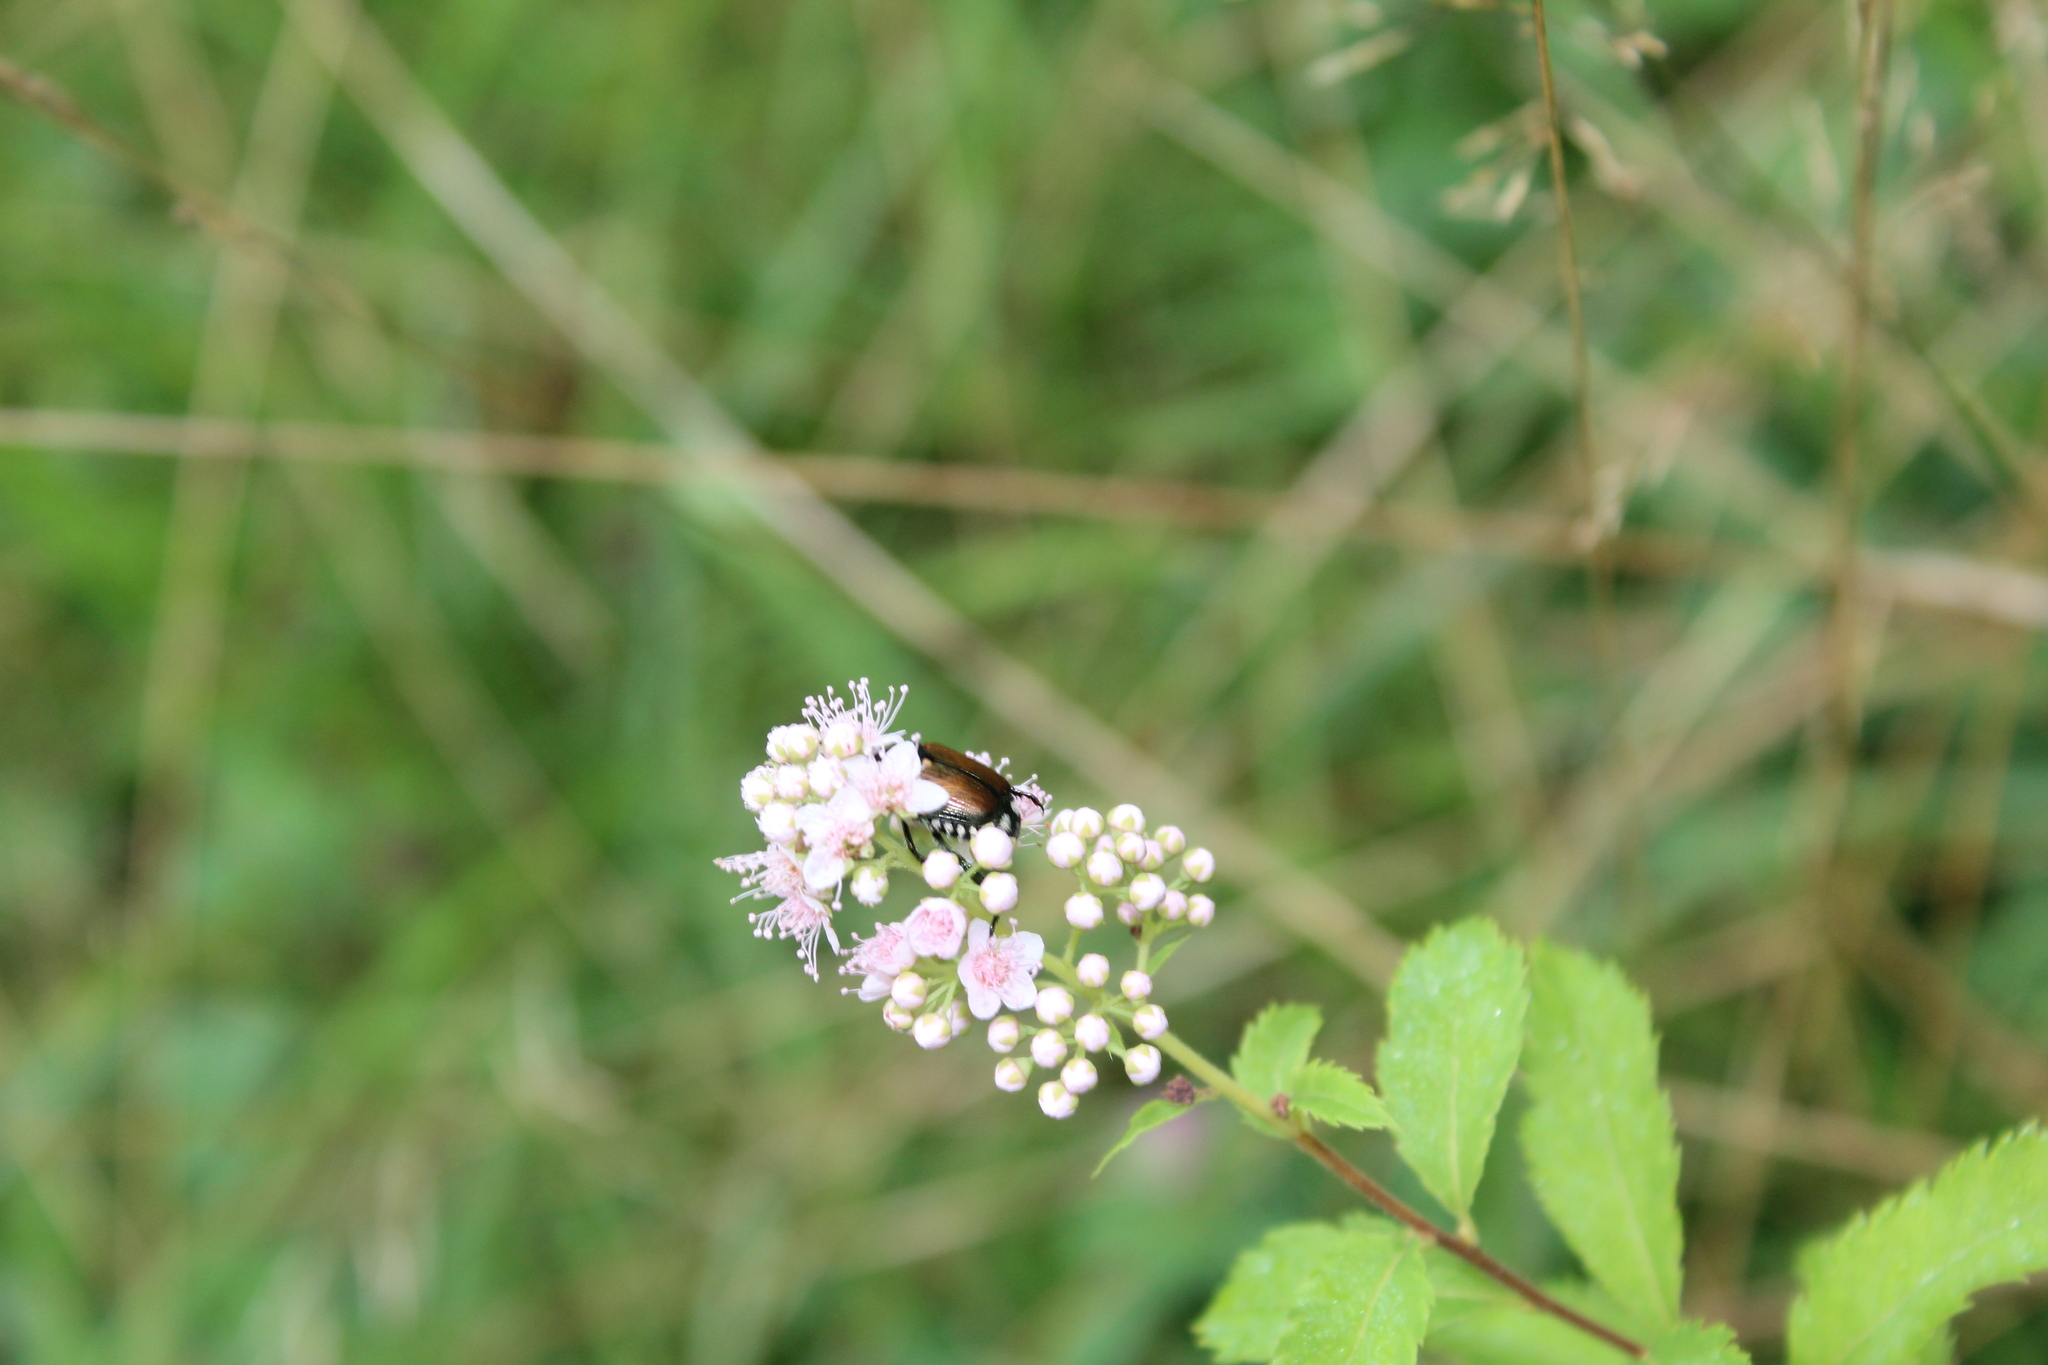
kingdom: Animalia
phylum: Arthropoda
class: Insecta
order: Coleoptera
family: Scarabaeidae
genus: Popillia
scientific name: Popillia japonica
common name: Japanese beetle
